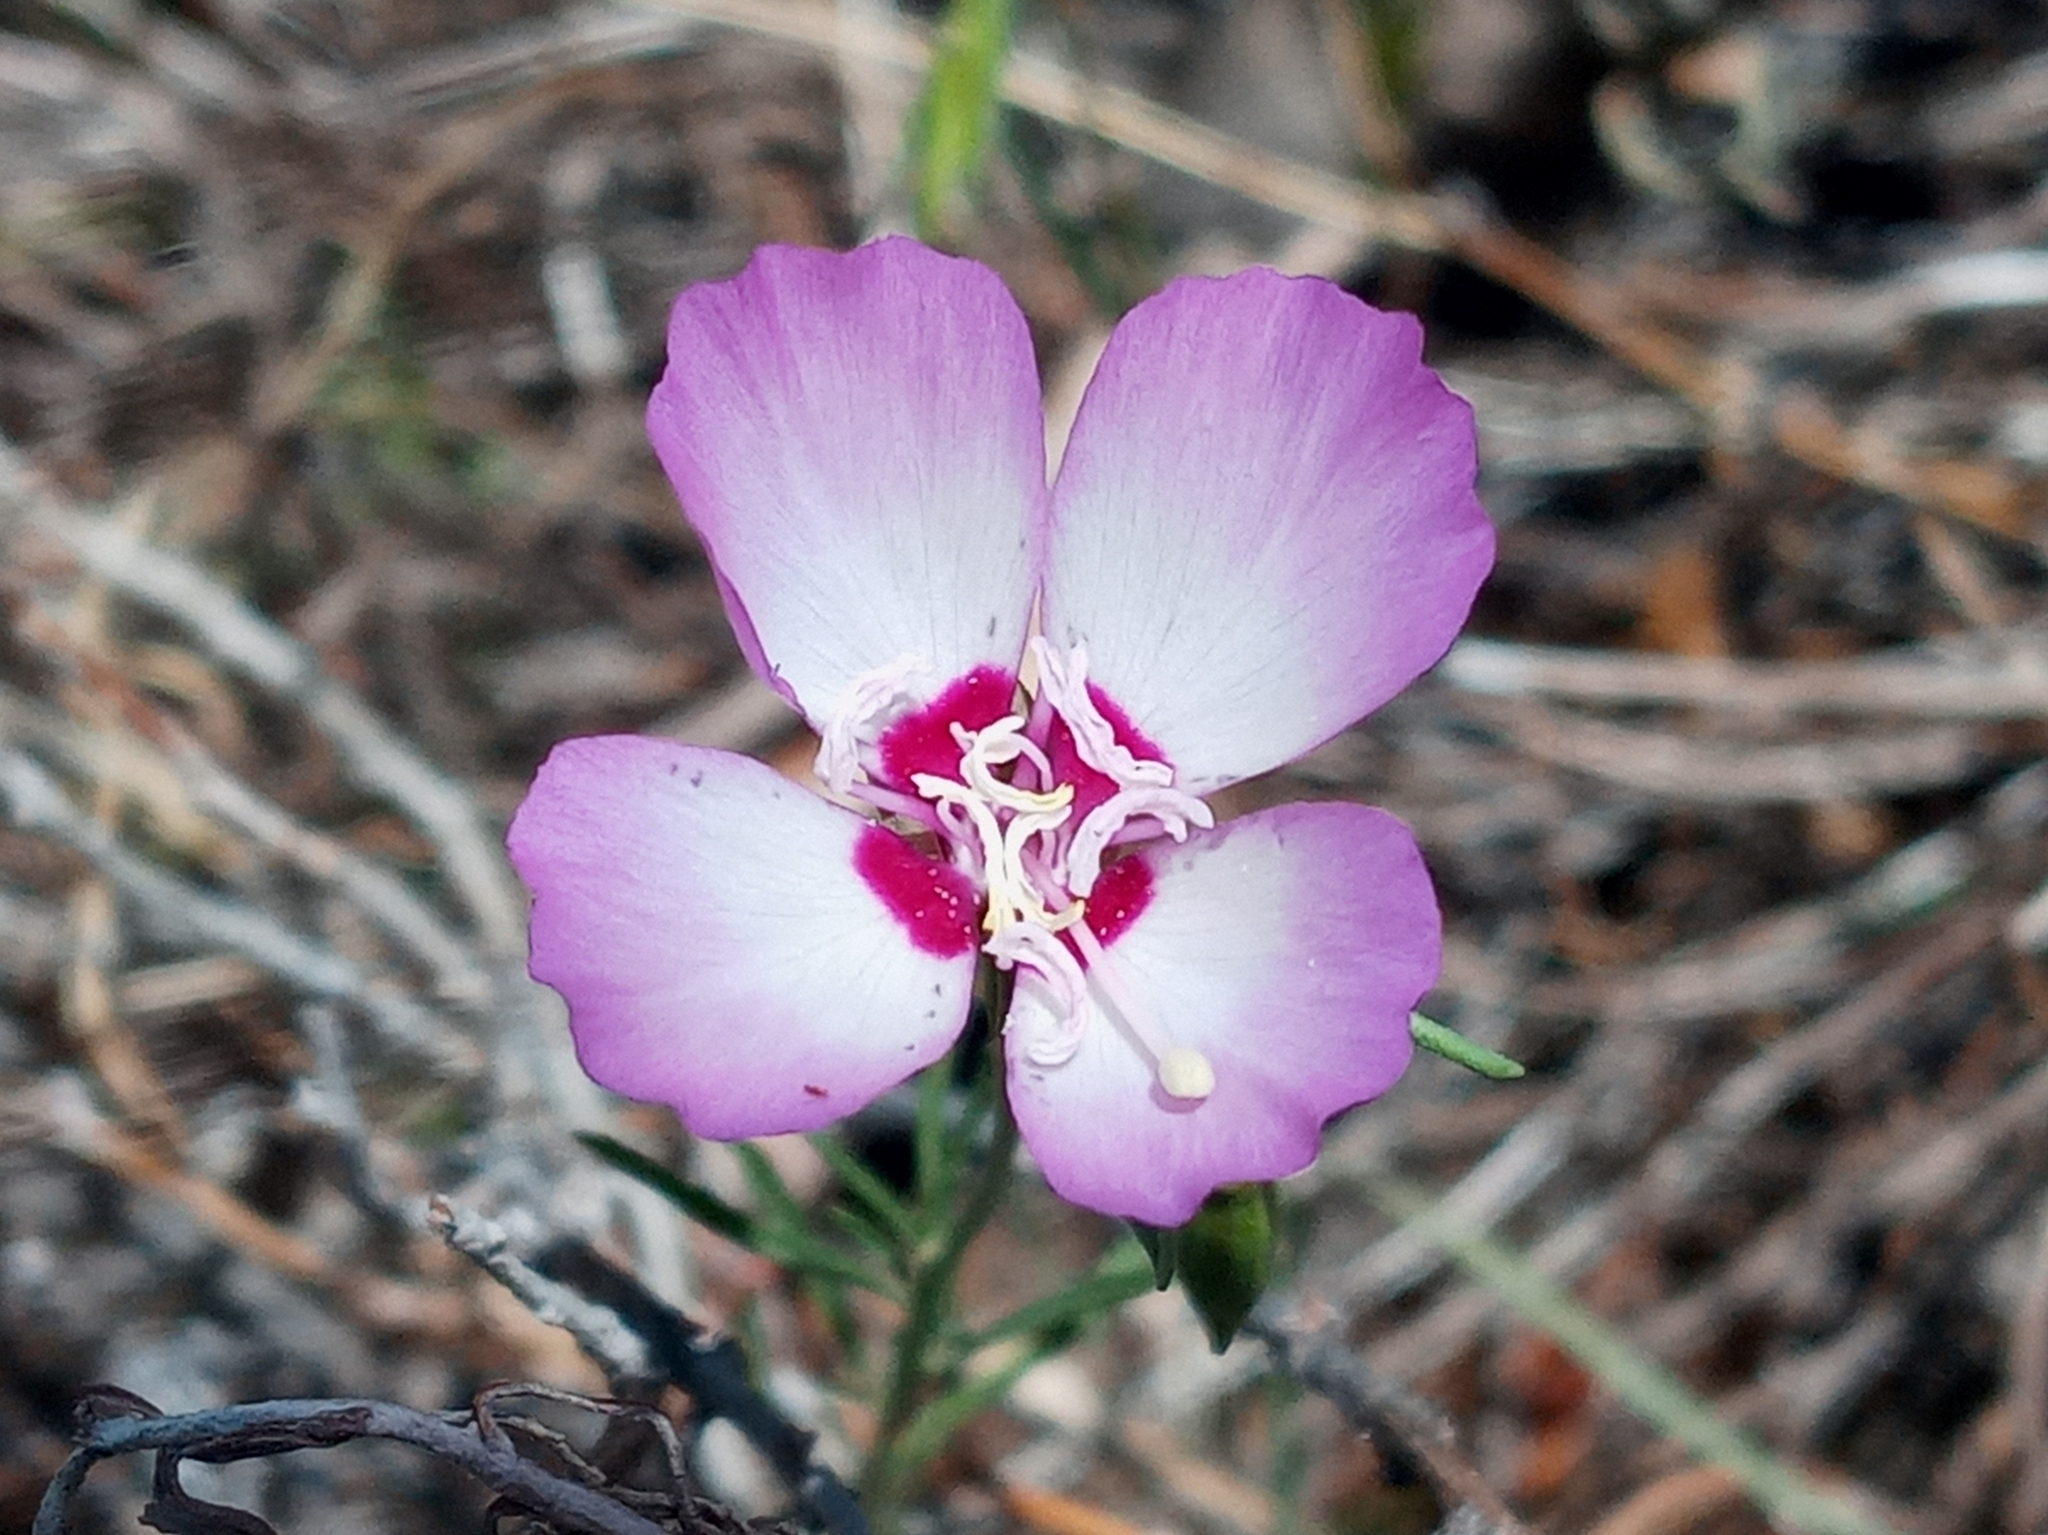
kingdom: Plantae
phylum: Tracheophyta
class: Magnoliopsida
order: Myrtales
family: Onagraceae
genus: Clarkia
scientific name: Clarkia cylindrica
